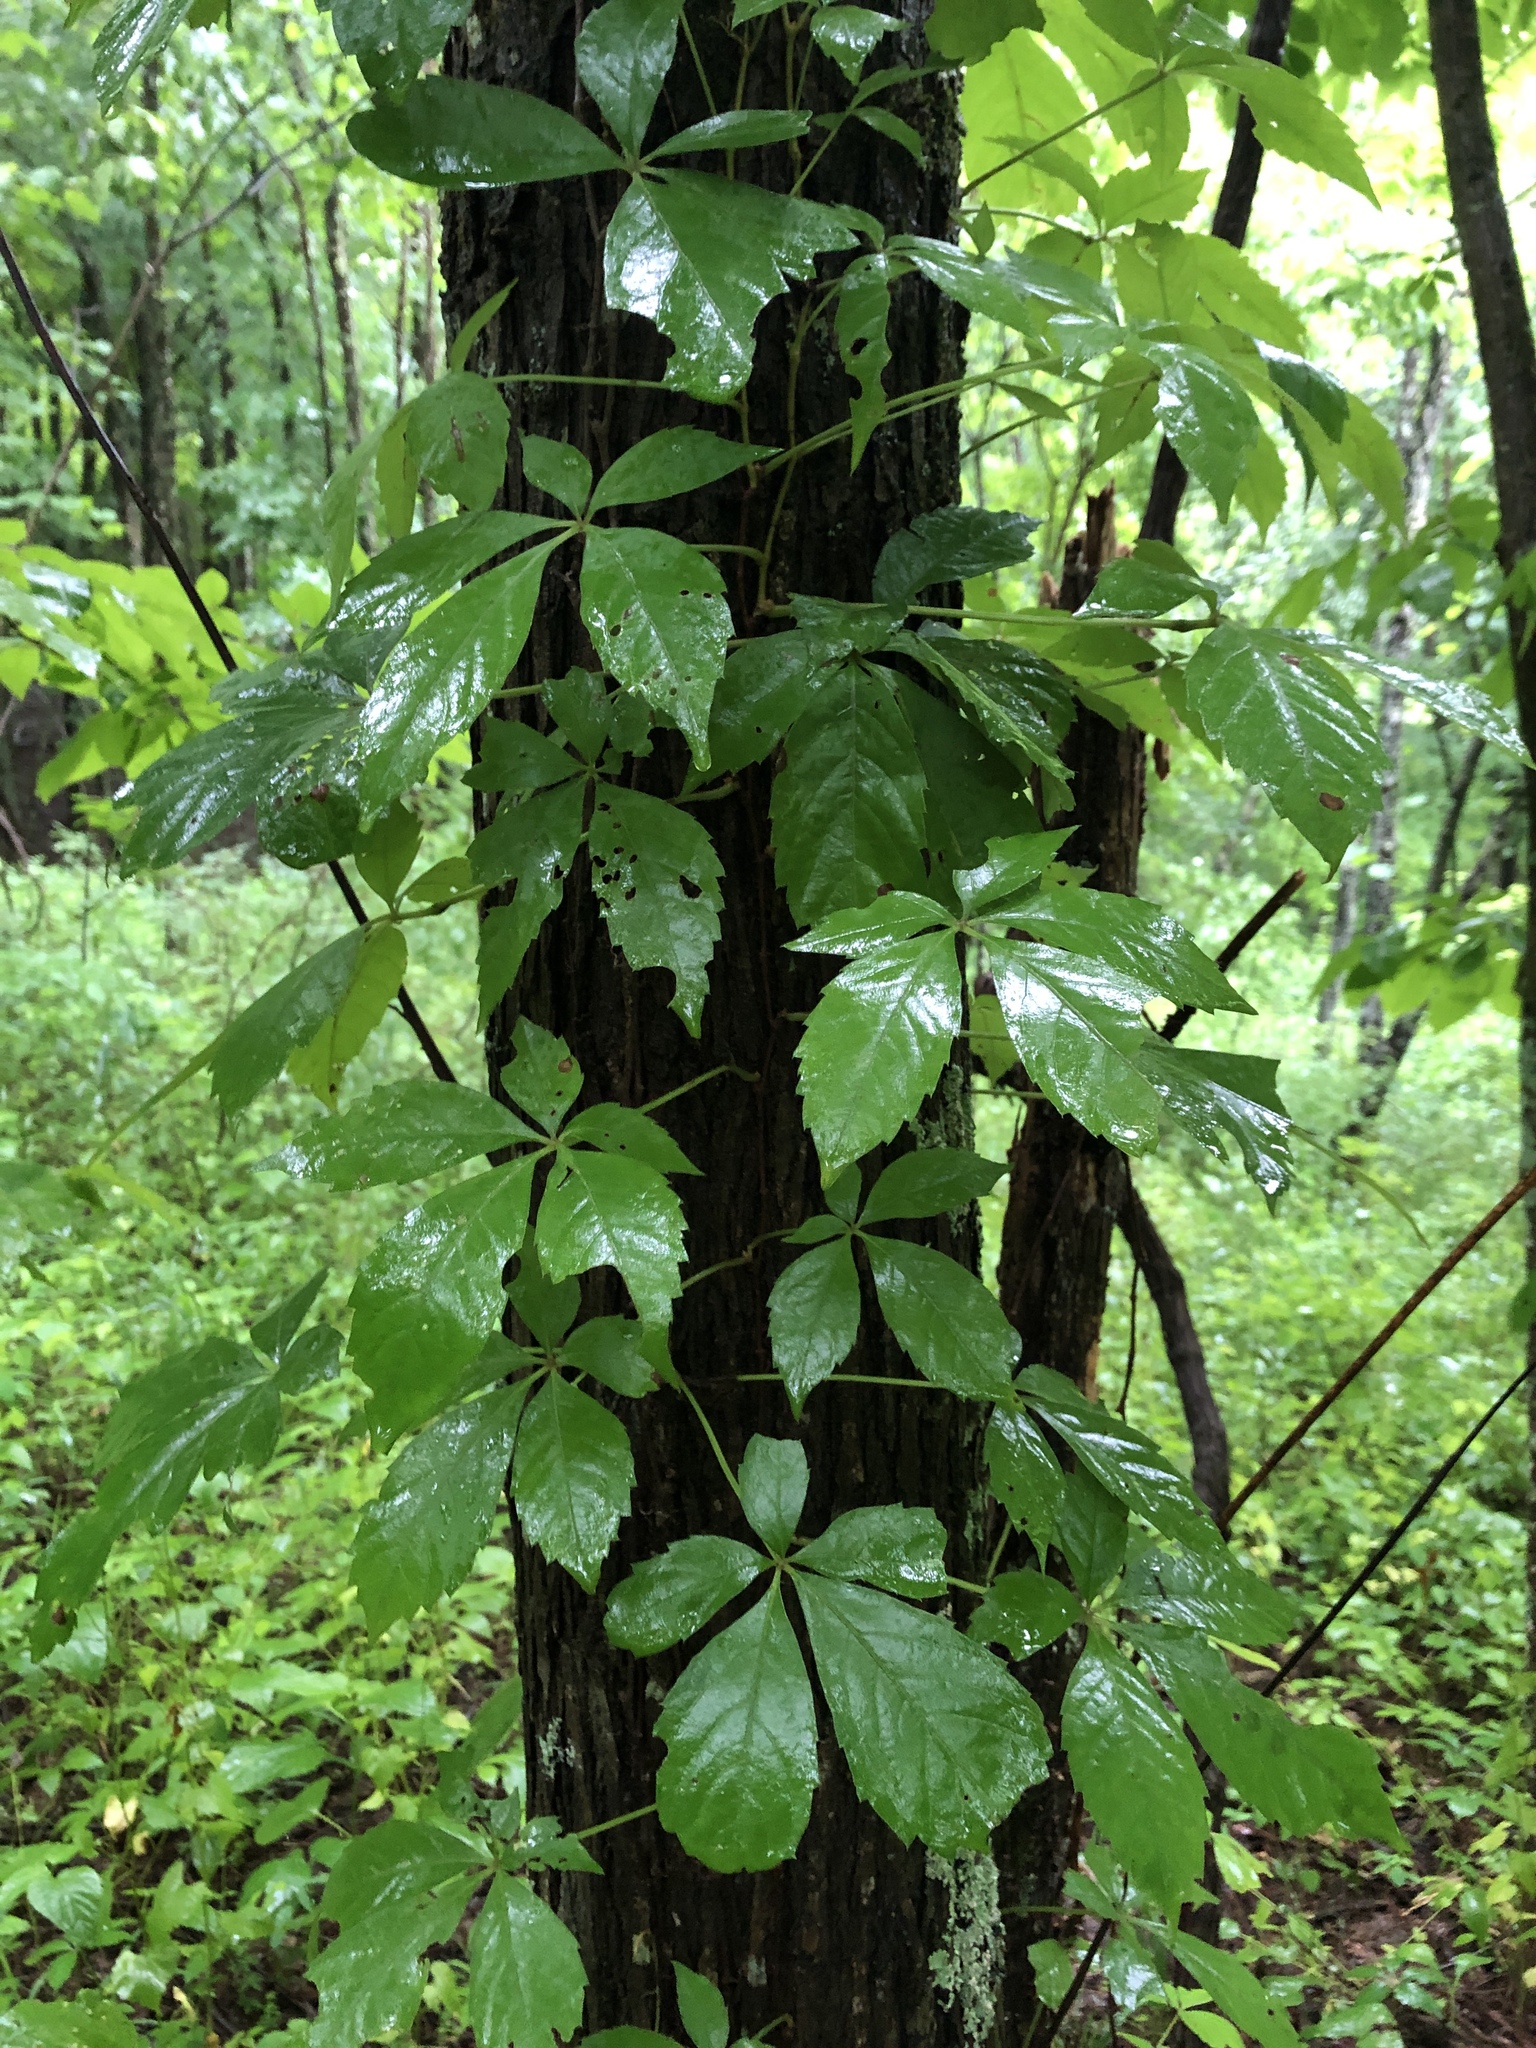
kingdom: Plantae
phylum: Tracheophyta
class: Magnoliopsida
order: Vitales
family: Vitaceae
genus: Parthenocissus
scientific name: Parthenocissus quinquefolia
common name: Virginia-creeper
